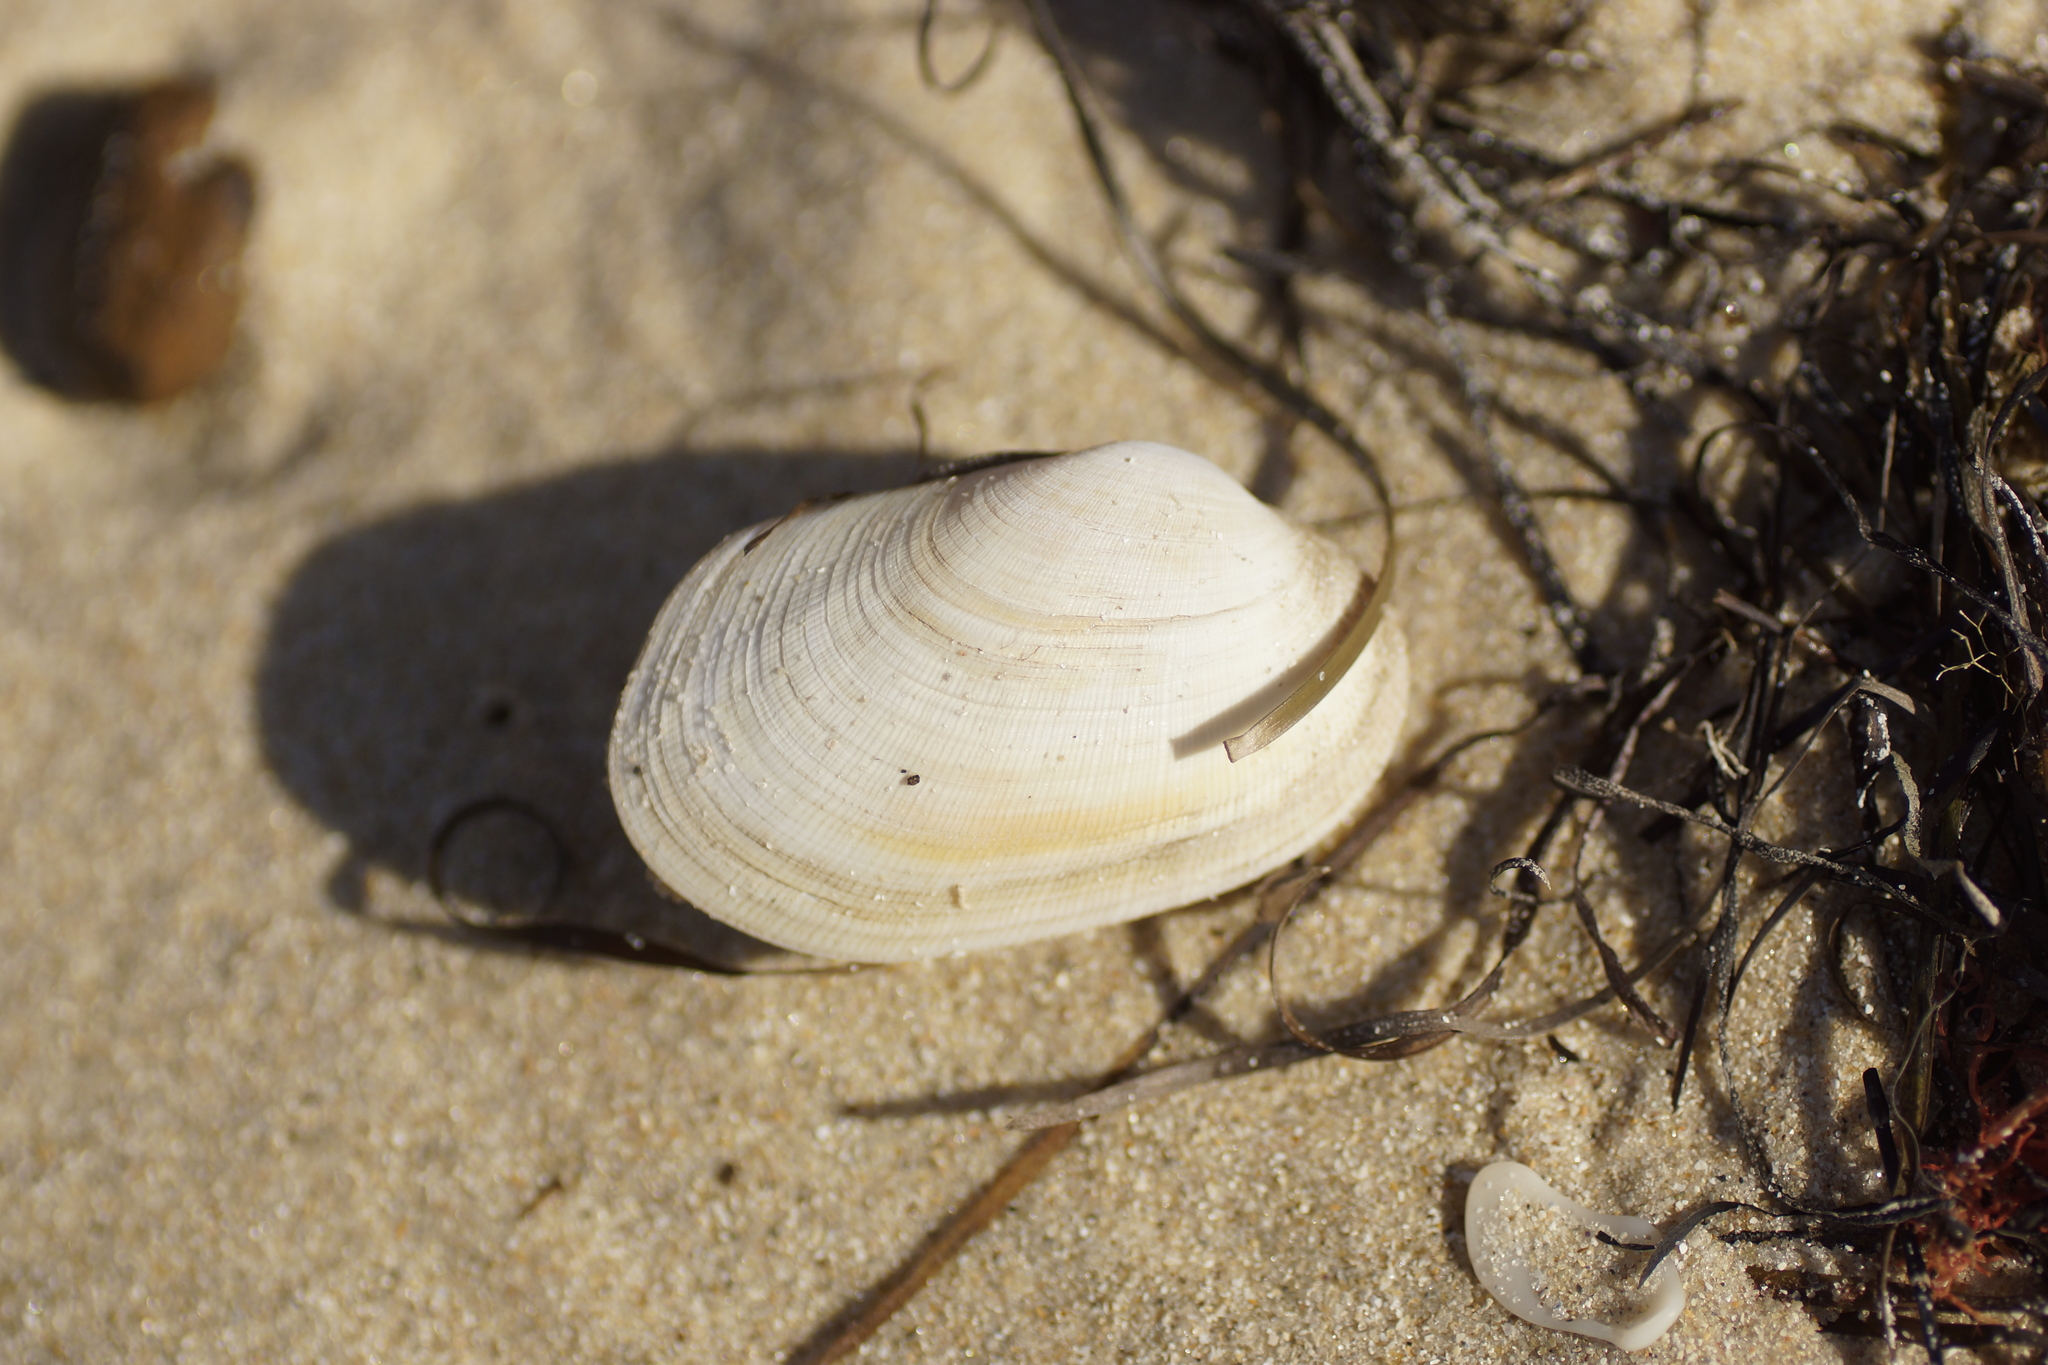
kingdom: Animalia
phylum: Mollusca
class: Bivalvia
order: Venerida
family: Veneridae
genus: Venerupis
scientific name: Venerupis galactites
